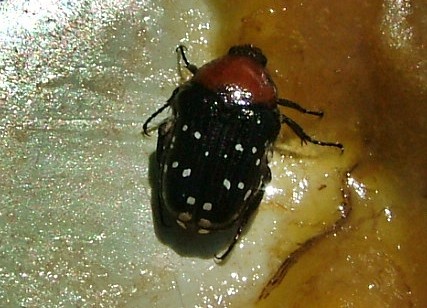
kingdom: Animalia
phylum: Arthropoda
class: Insecta
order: Coleoptera
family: Scarabaeidae
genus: Clinteroides
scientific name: Clinteroides permutans
